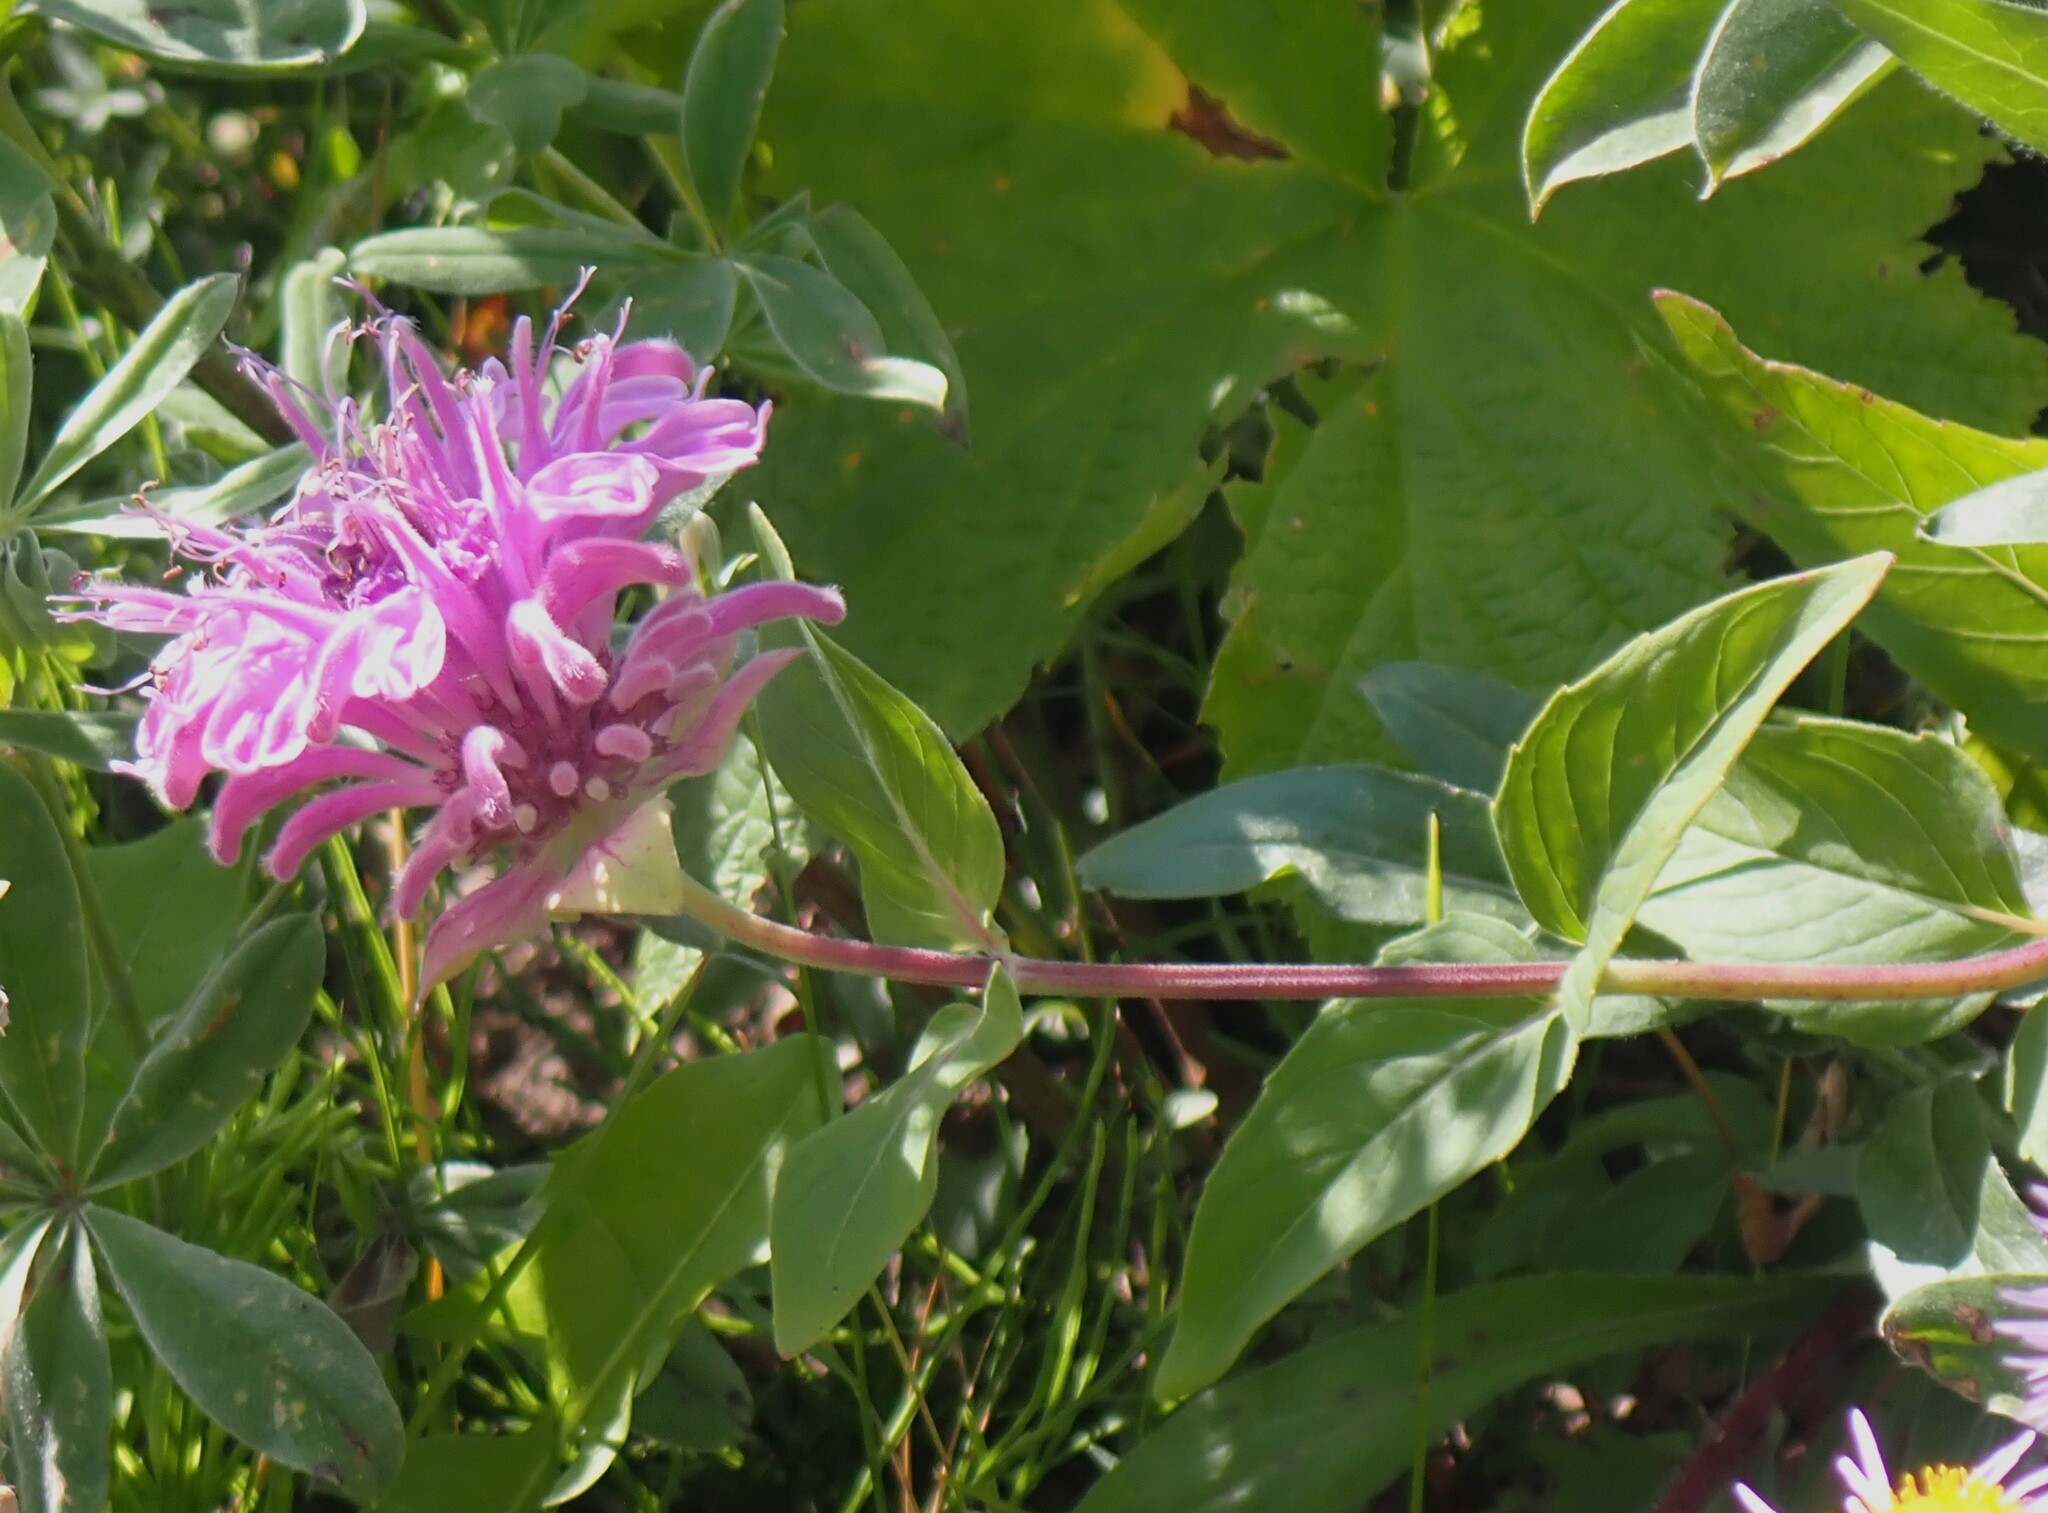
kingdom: Plantae
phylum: Tracheophyta
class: Magnoliopsida
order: Lamiales
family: Lamiaceae
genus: Monarda
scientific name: Monarda fistulosa
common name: Purple beebalm
